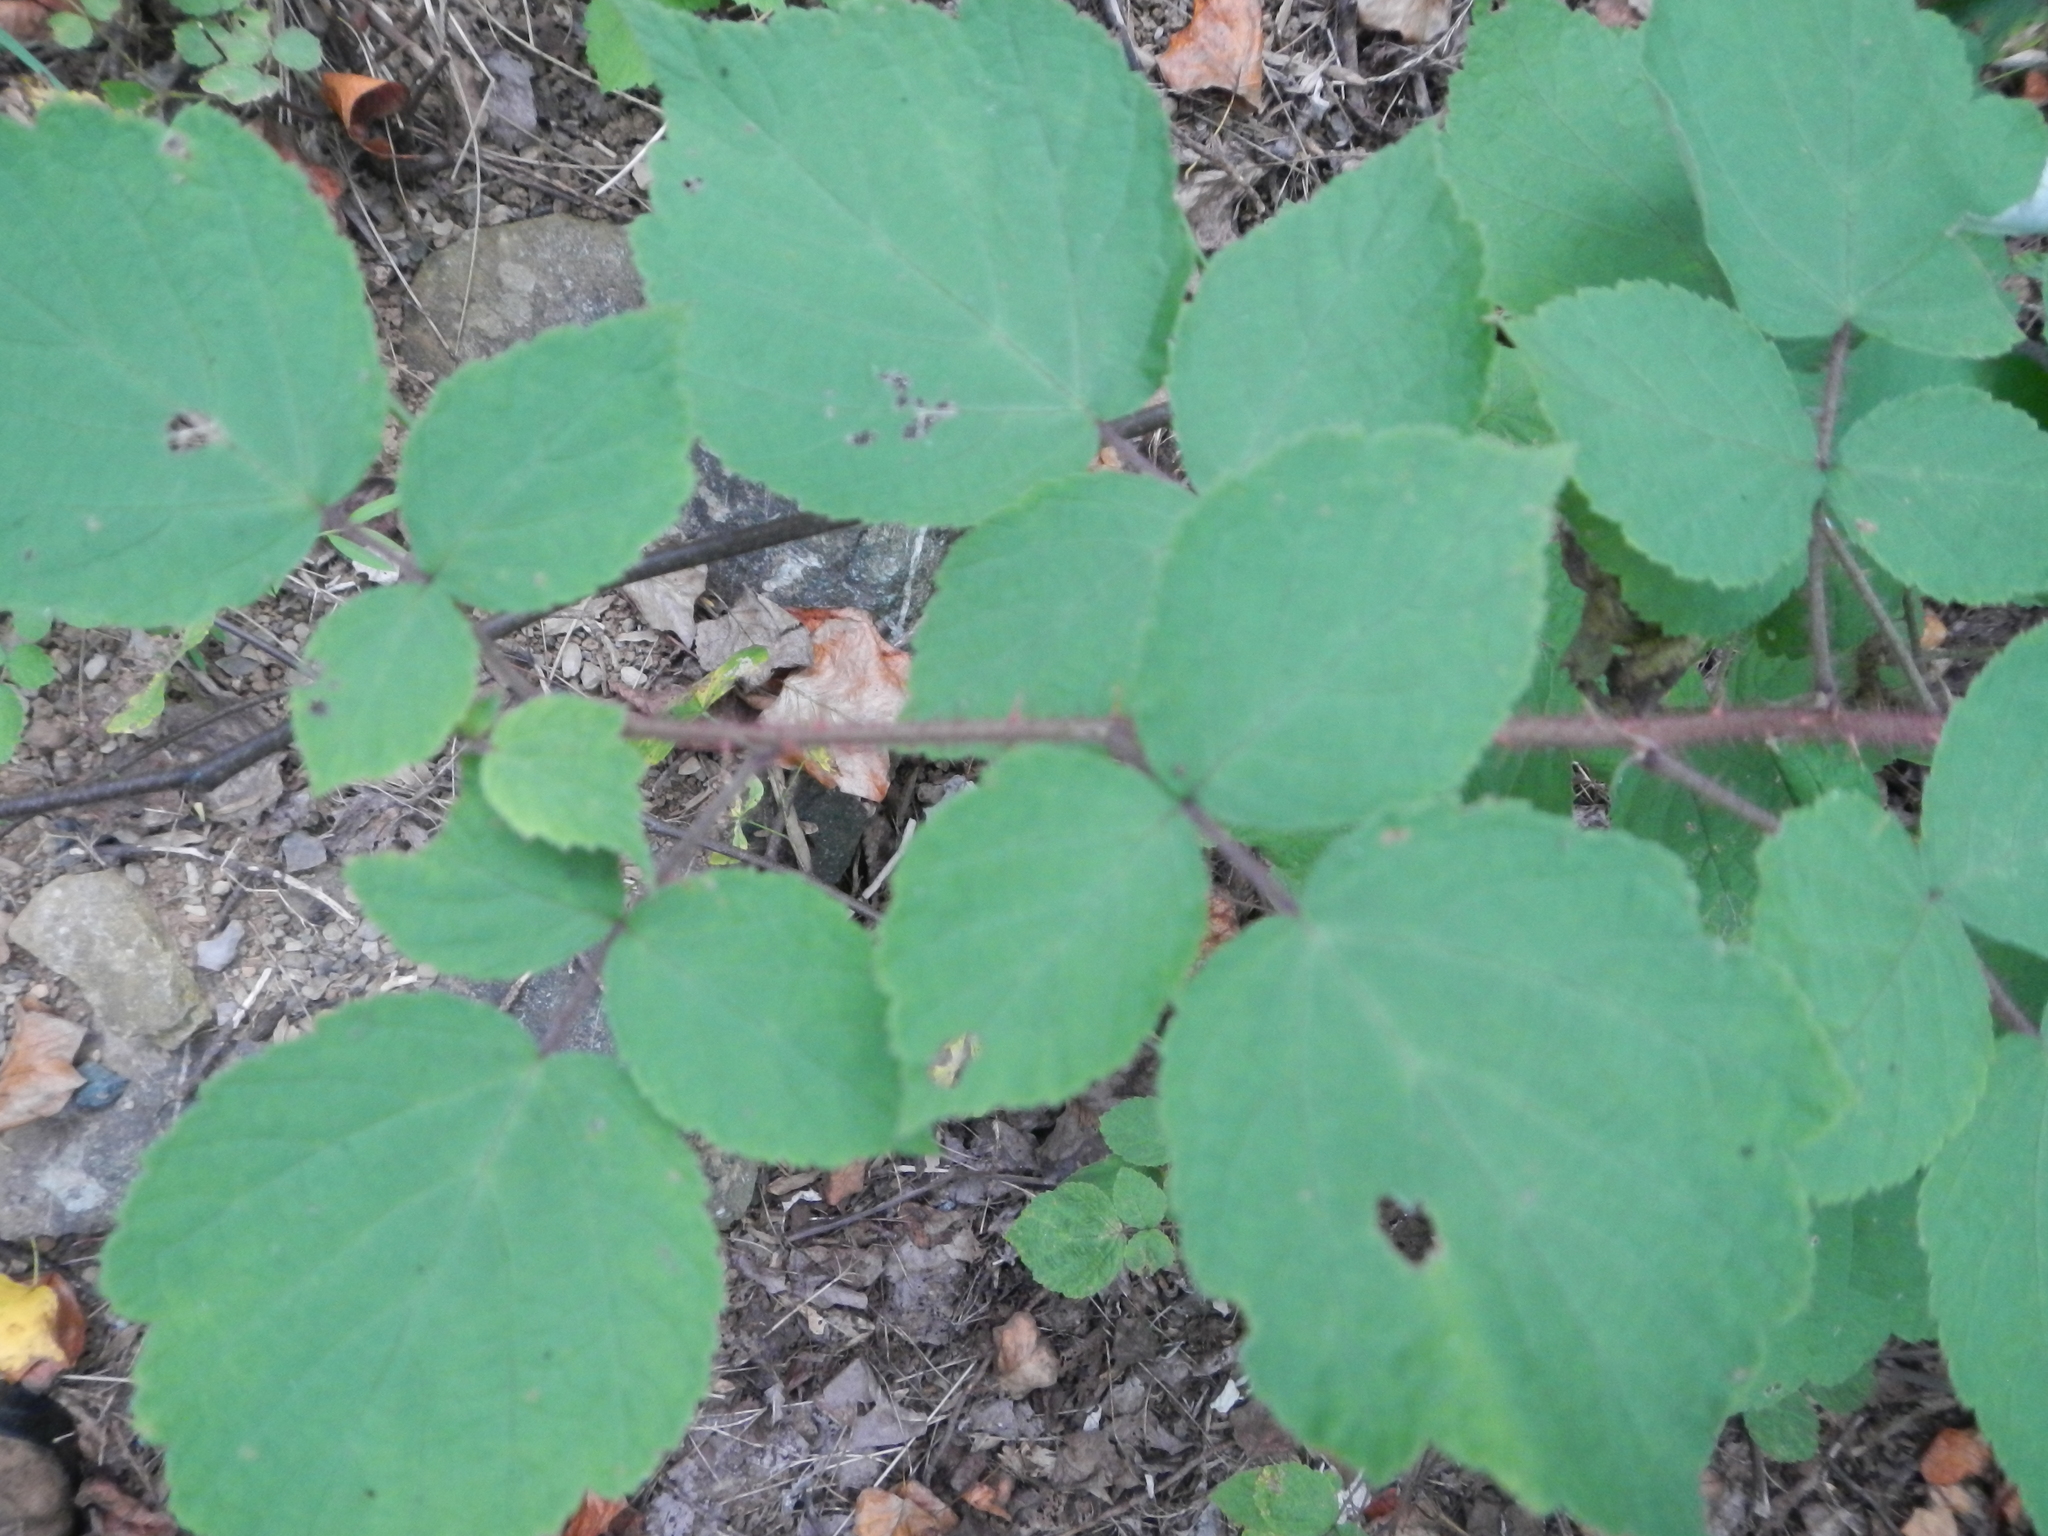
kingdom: Plantae
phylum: Tracheophyta
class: Magnoliopsida
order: Rosales
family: Rosaceae
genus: Rubus
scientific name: Rubus phoenicolasius
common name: Japanese wineberry
